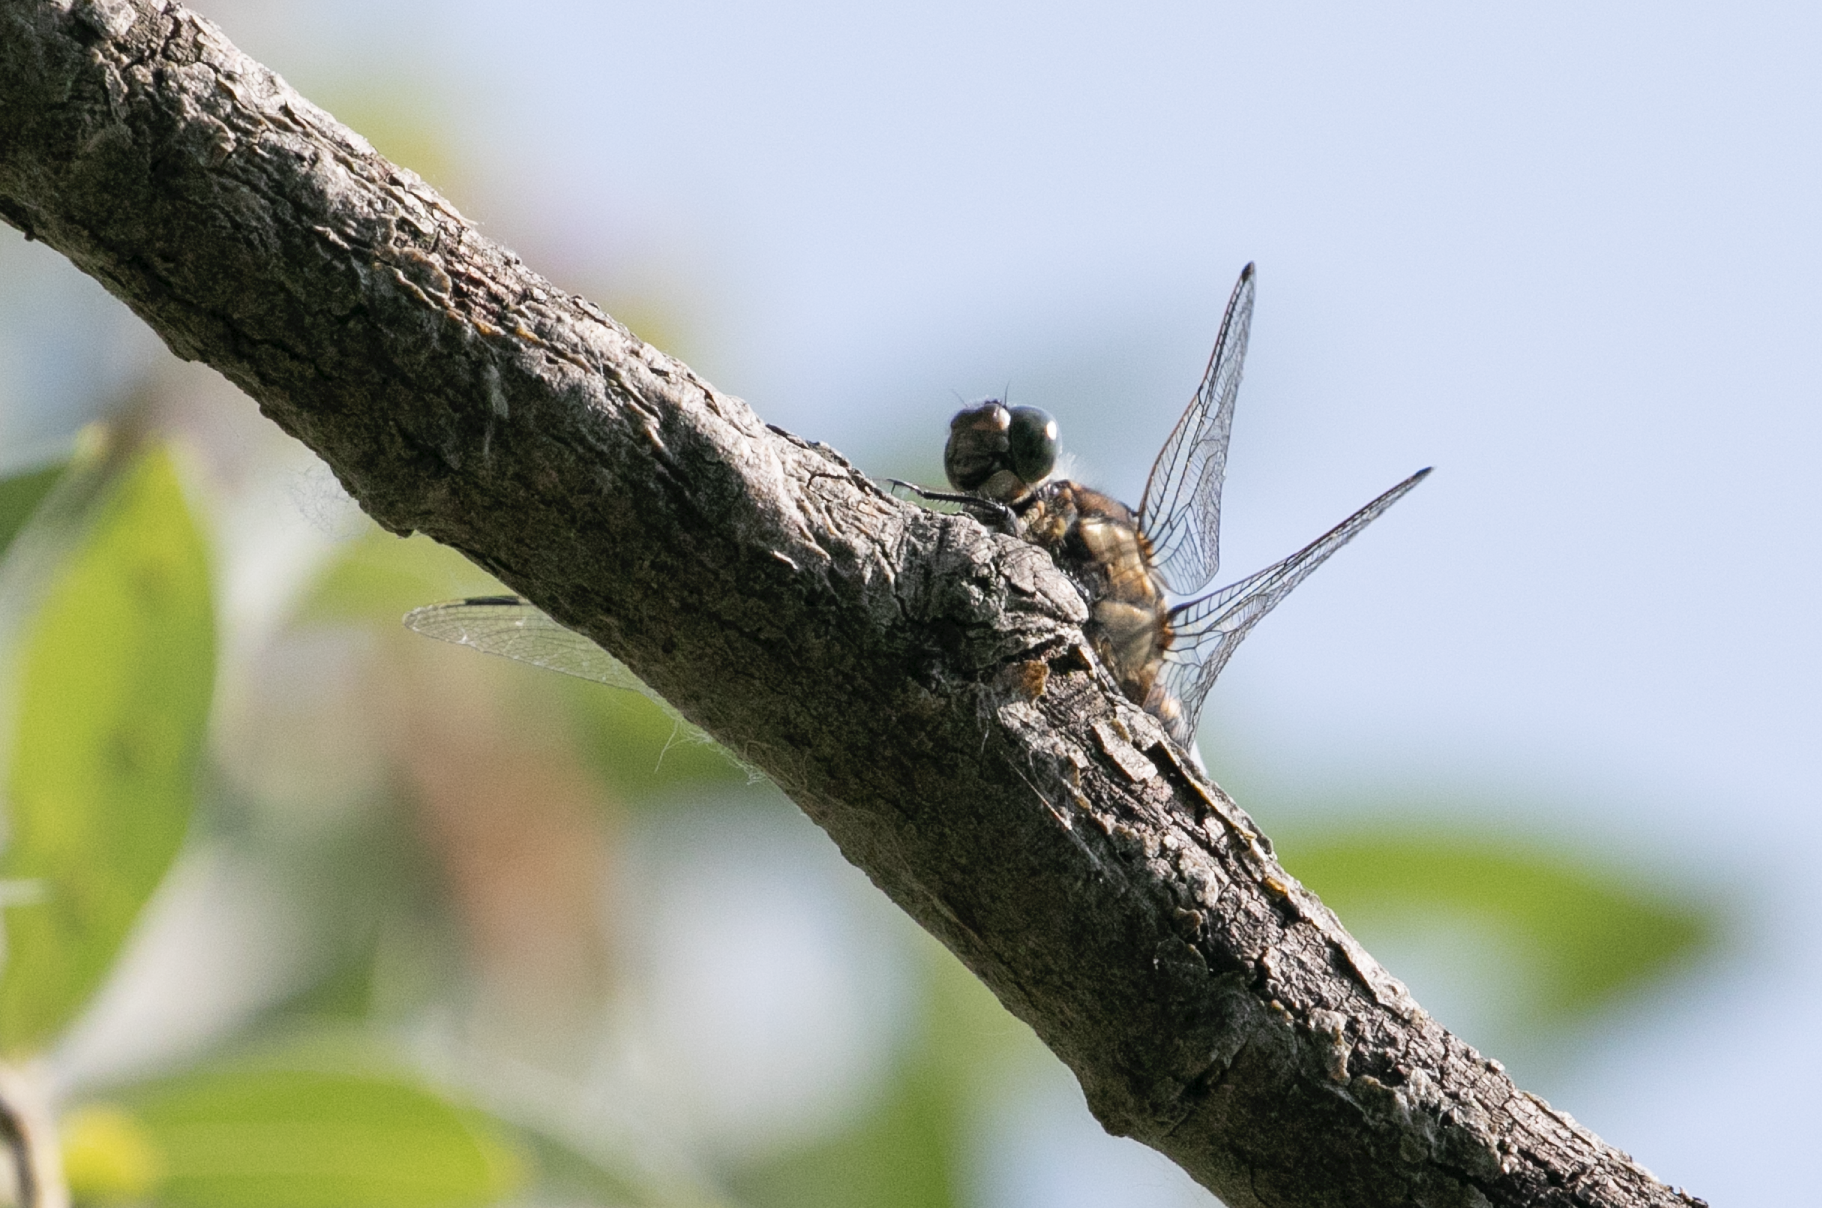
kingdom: Animalia
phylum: Arthropoda
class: Insecta
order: Odonata
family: Libellulidae
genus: Orthetrum
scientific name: Orthetrum cancellatum
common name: Black-tailed skimmer
